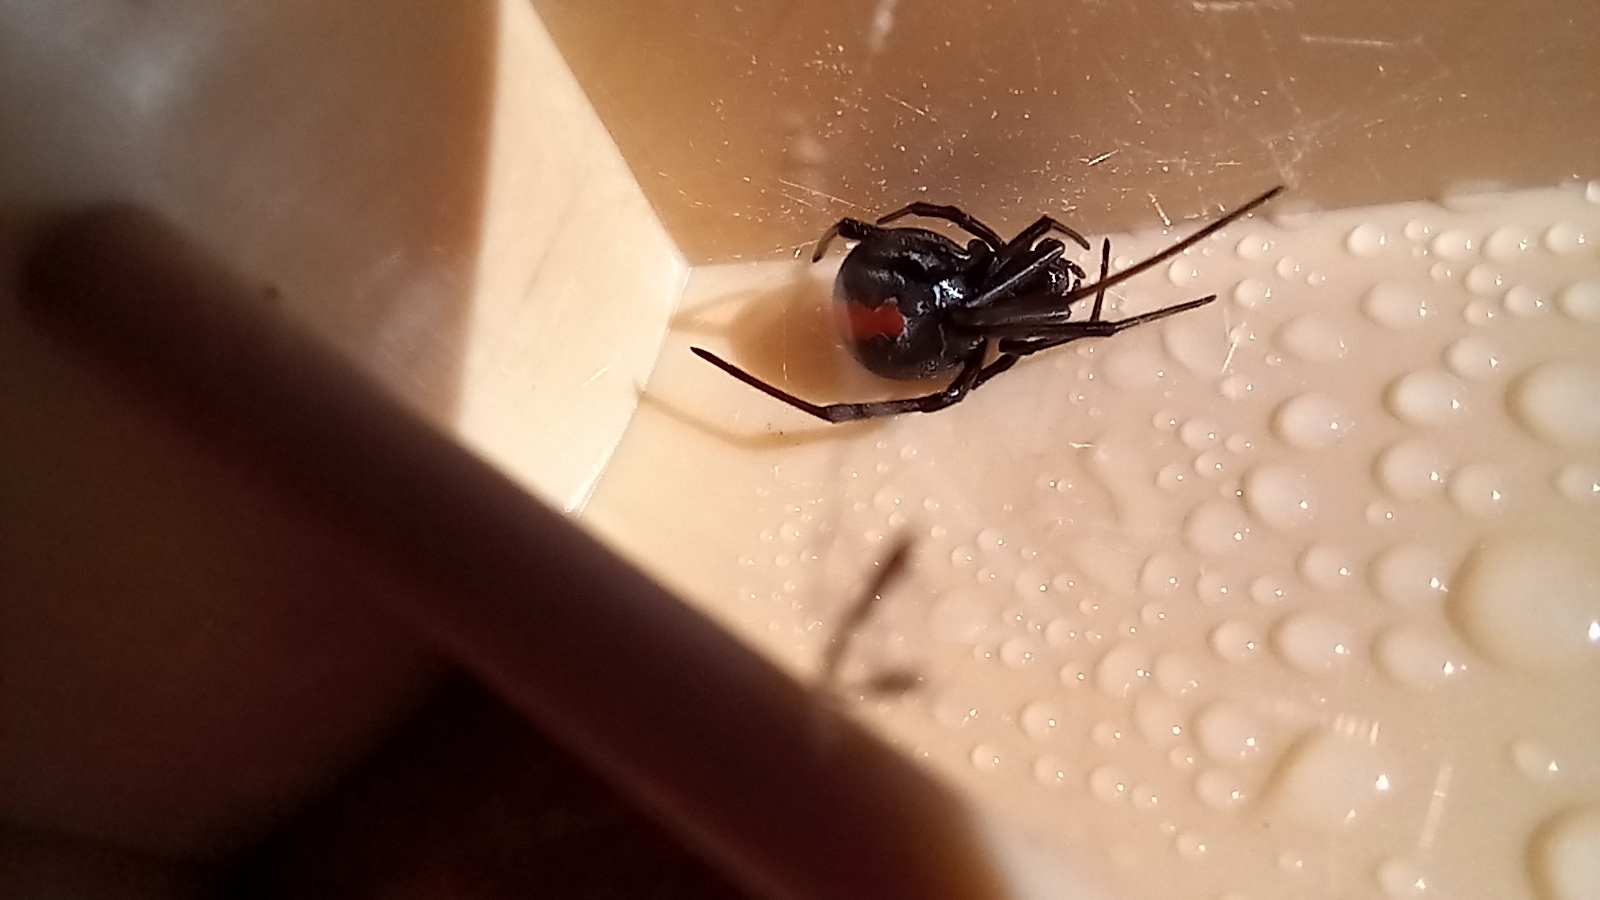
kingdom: Animalia
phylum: Arthropoda
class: Arachnida
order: Araneae
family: Theridiidae
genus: Latrodectus
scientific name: Latrodectus hasselti
